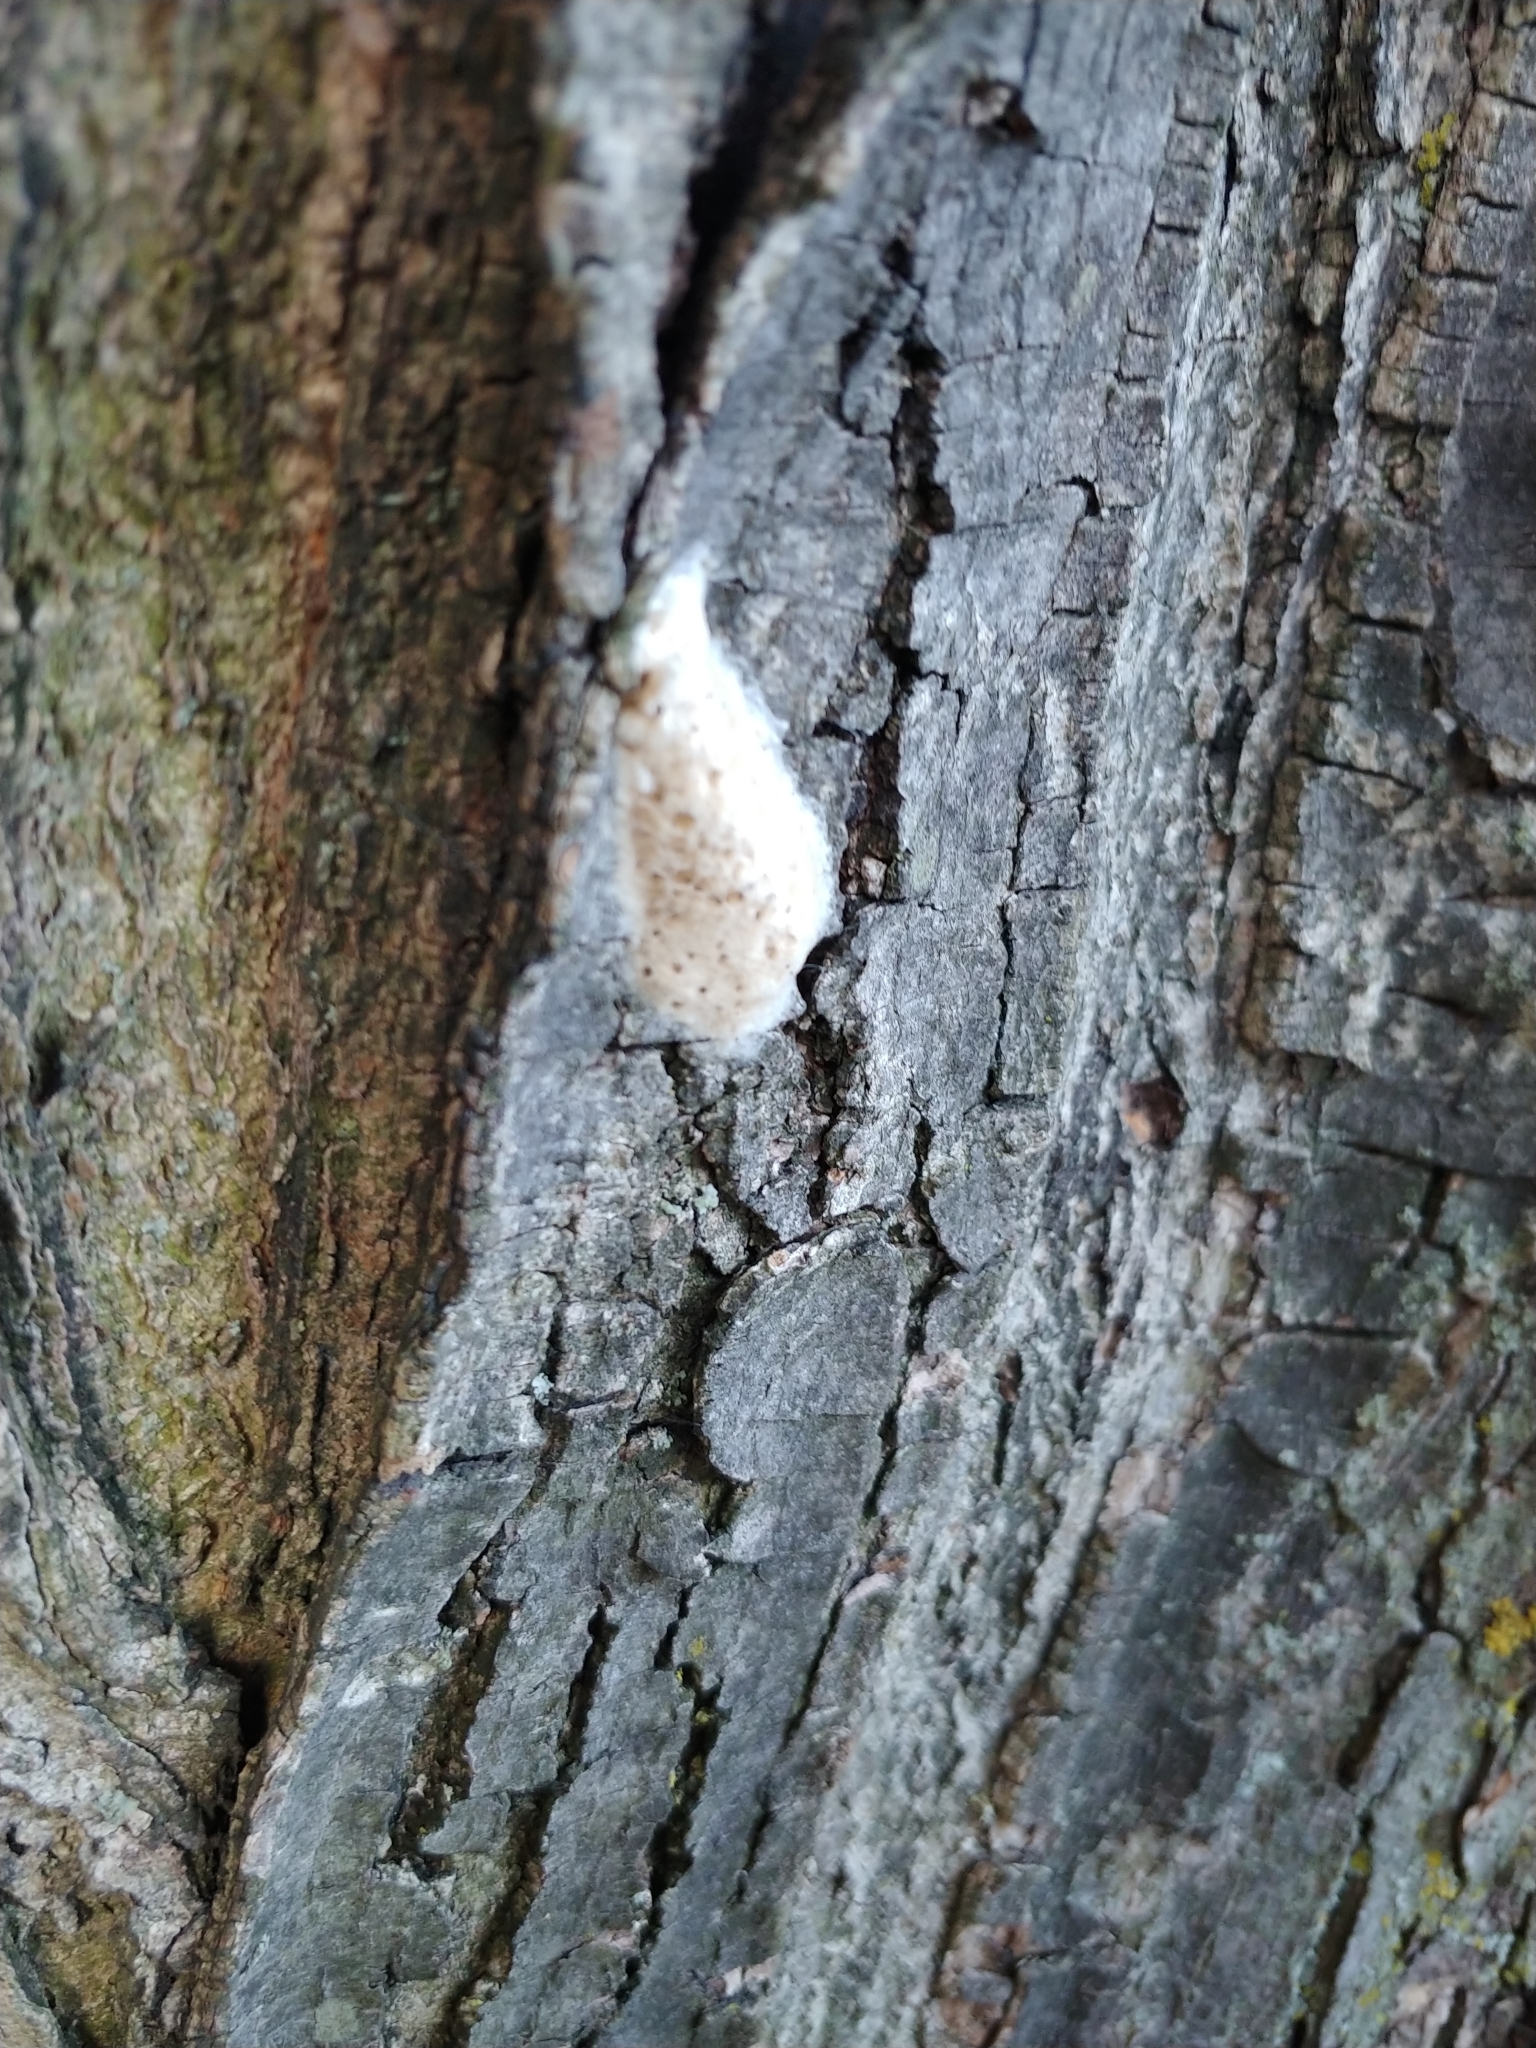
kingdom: Animalia
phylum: Arthropoda
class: Insecta
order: Lepidoptera
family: Erebidae
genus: Lymantria
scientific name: Lymantria dispar
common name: Gypsy moth
